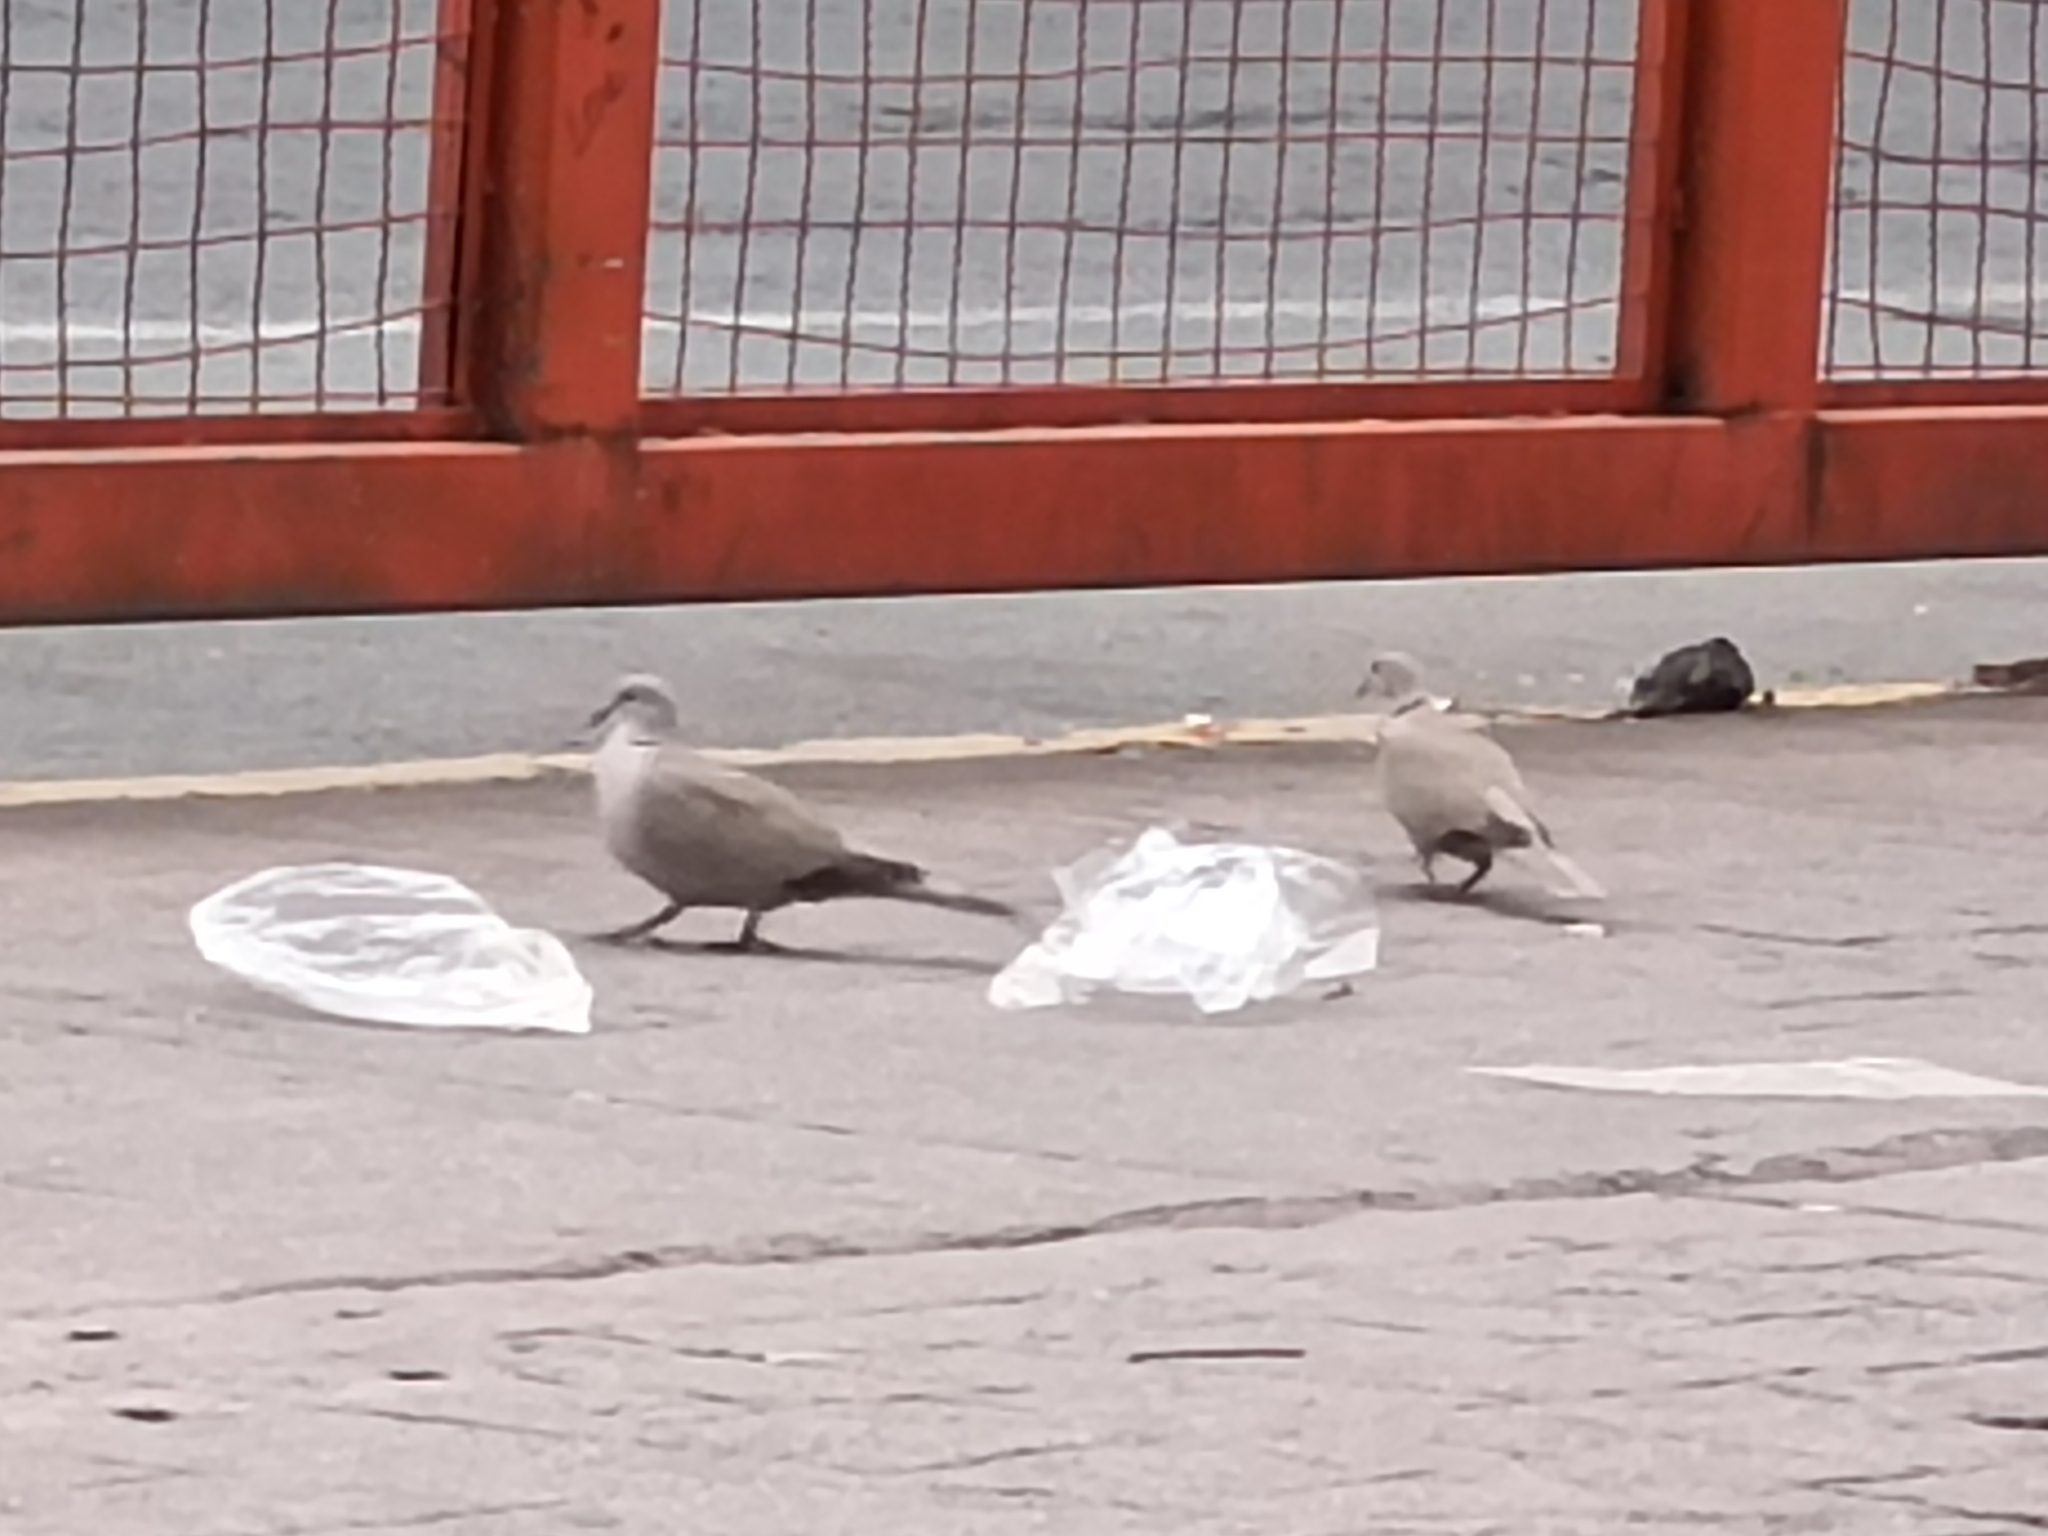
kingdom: Animalia
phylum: Chordata
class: Aves
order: Columbiformes
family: Columbidae
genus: Streptopelia
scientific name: Streptopelia decaocto
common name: Eurasian collared dove
